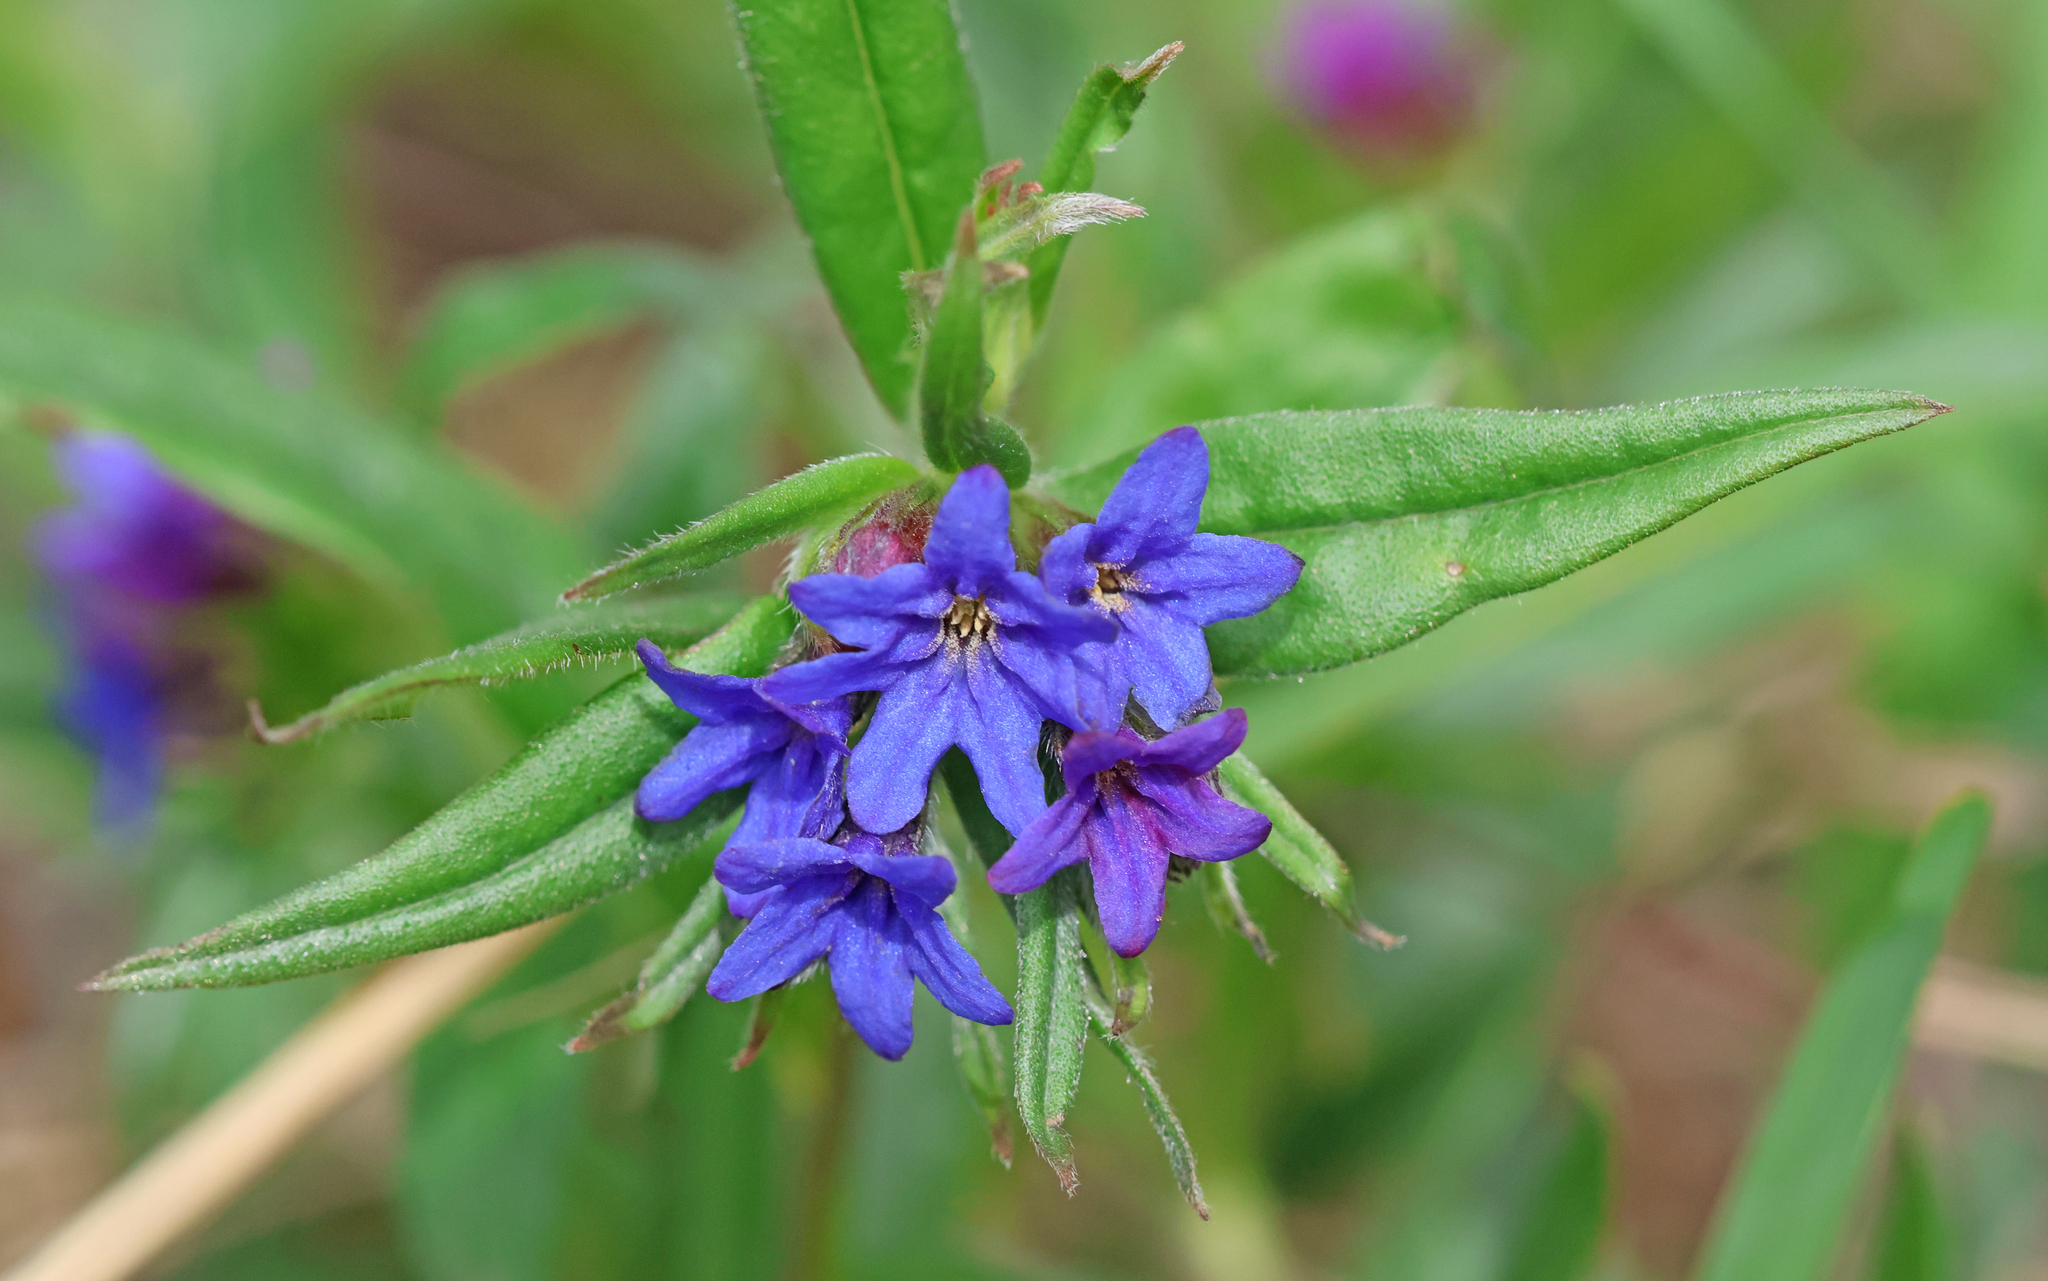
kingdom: Plantae
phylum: Tracheophyta
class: Magnoliopsida
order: Boraginales
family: Boraginaceae
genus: Aegonychon
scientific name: Aegonychon purpurocaeruleum
